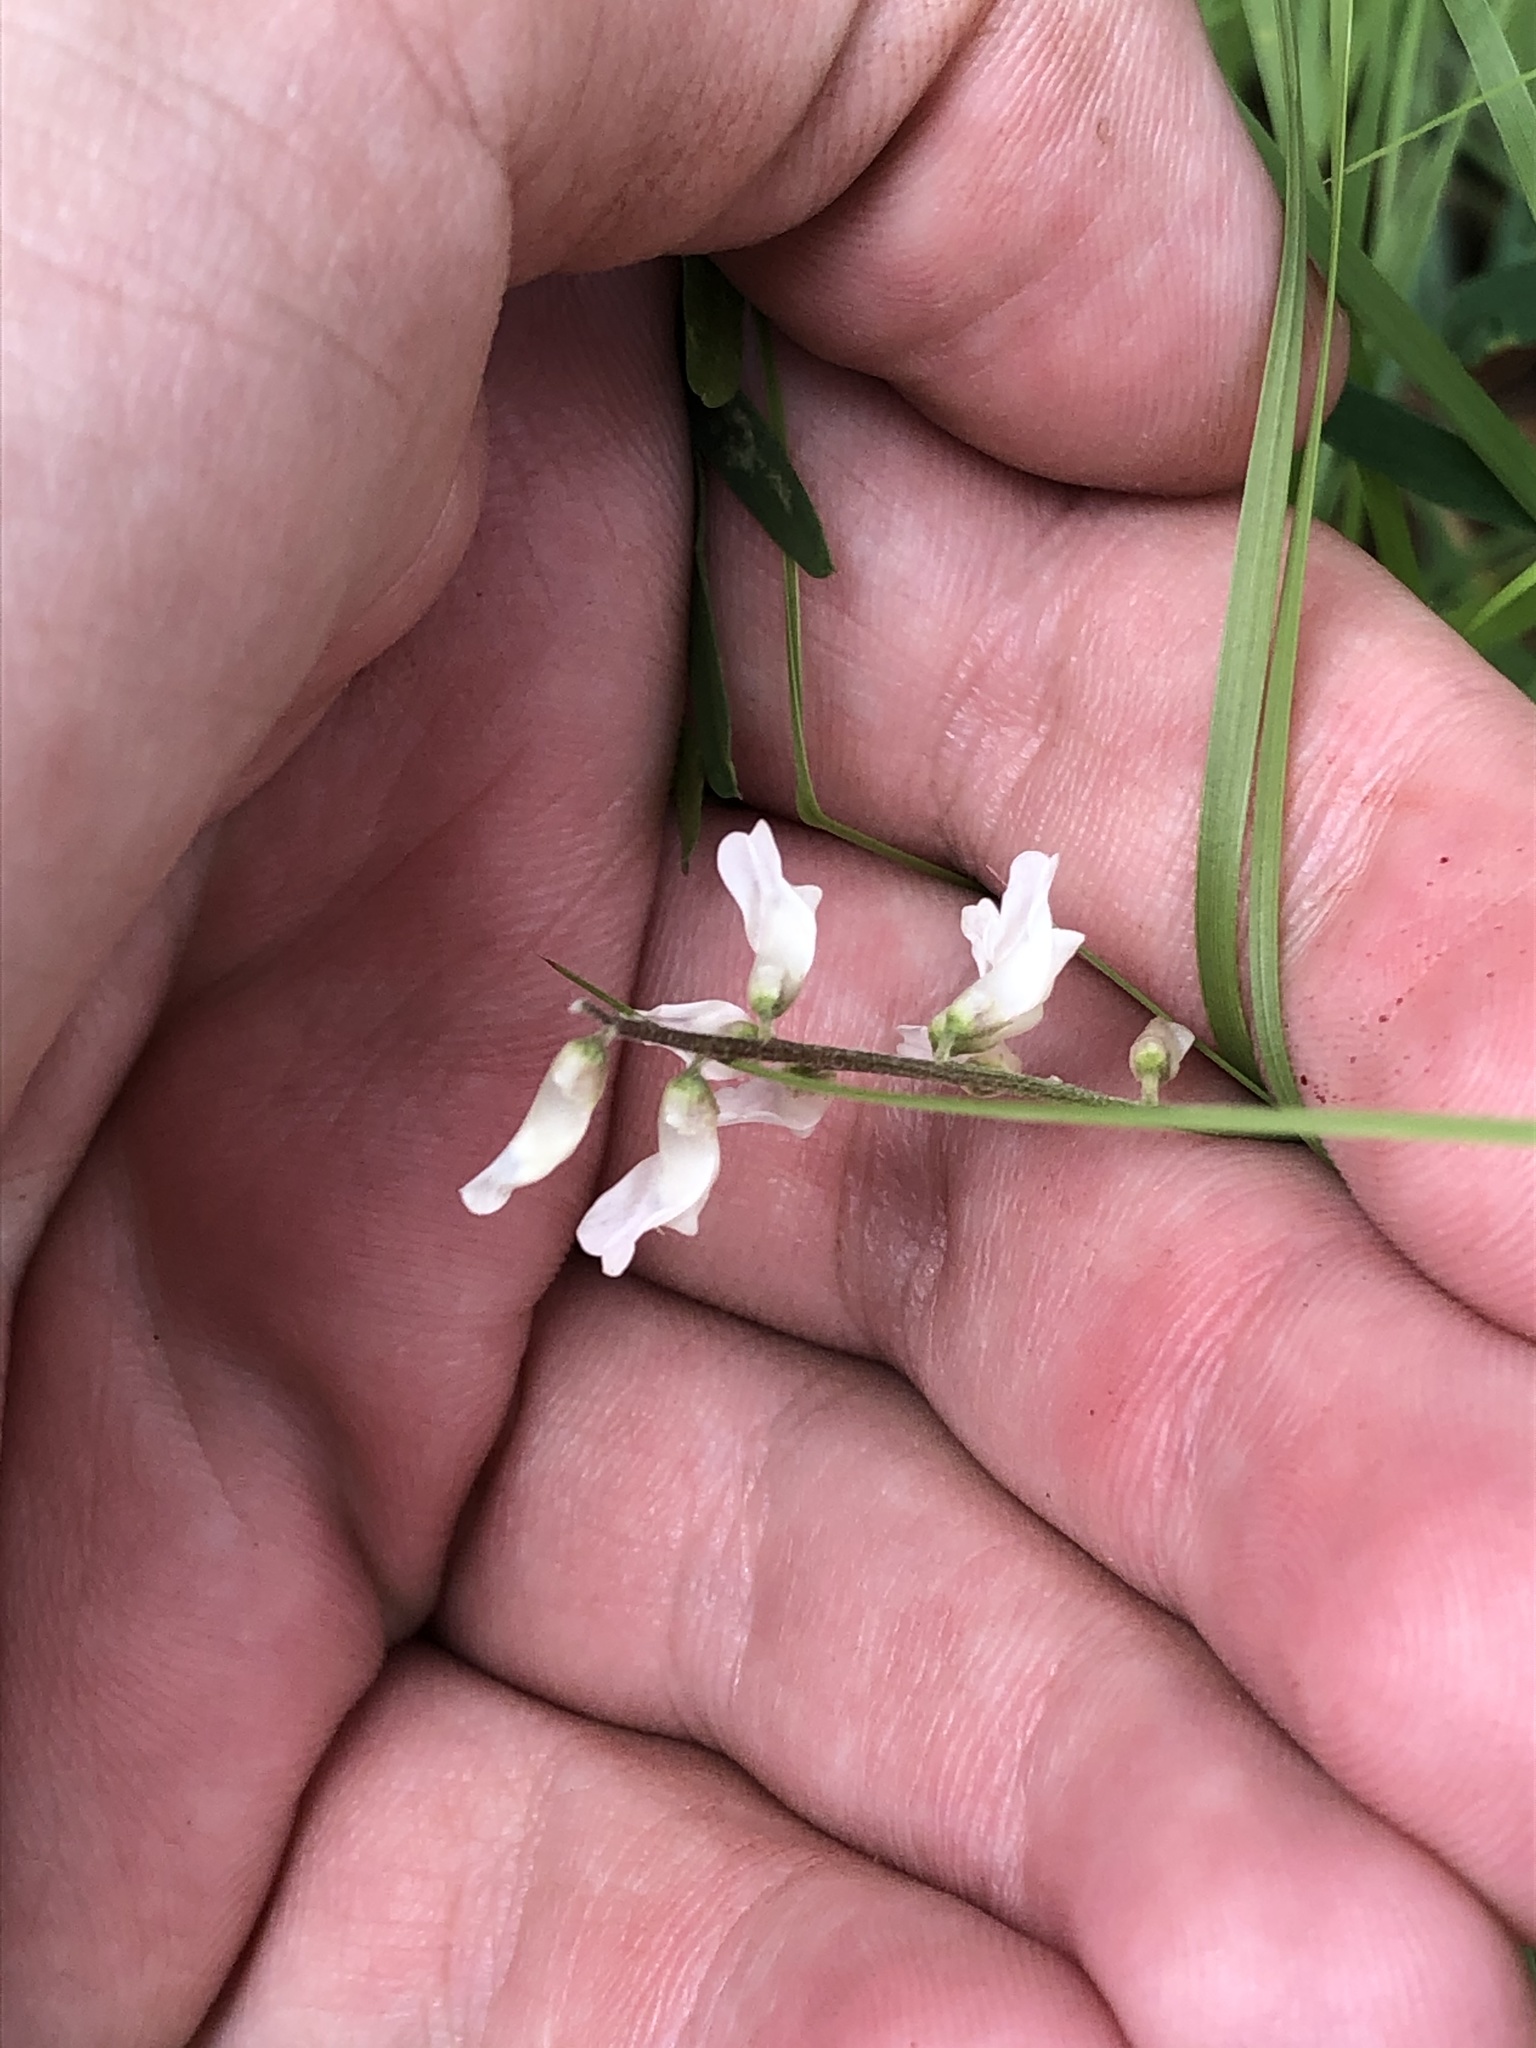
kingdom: Plantae
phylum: Tracheophyta
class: Magnoliopsida
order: Fabales
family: Fabaceae
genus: Vicia
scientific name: Vicia pulchella
